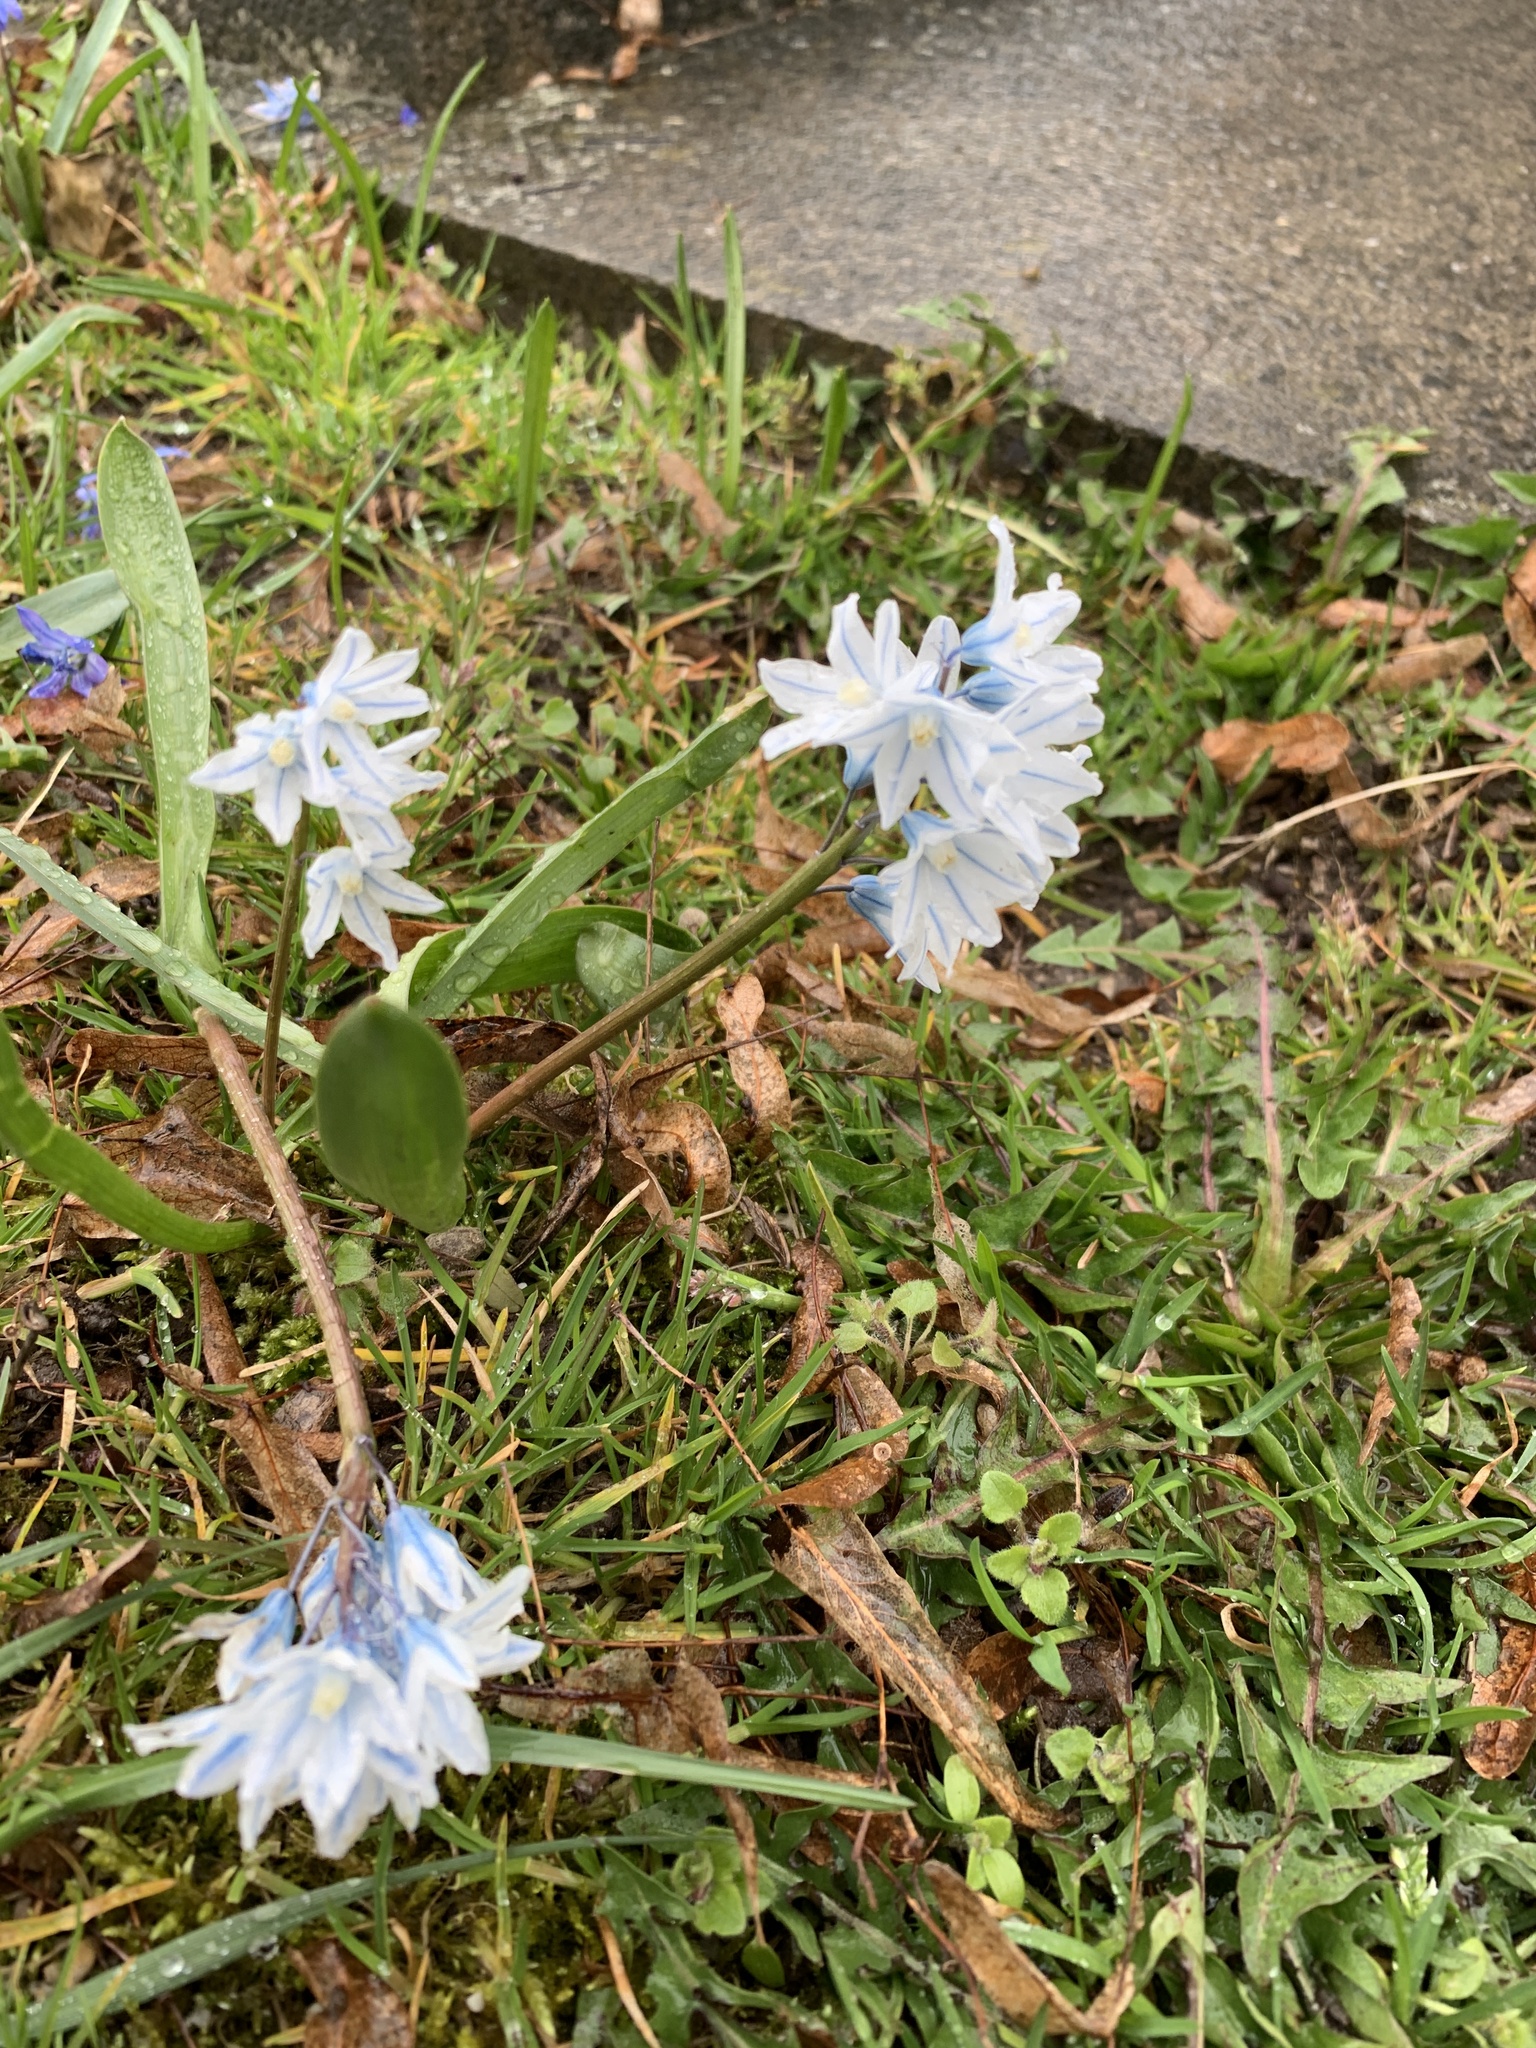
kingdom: Plantae
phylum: Tracheophyta
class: Liliopsida
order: Asparagales
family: Asparagaceae
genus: Puschkinia
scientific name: Puschkinia scilloides
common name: Striped squill
